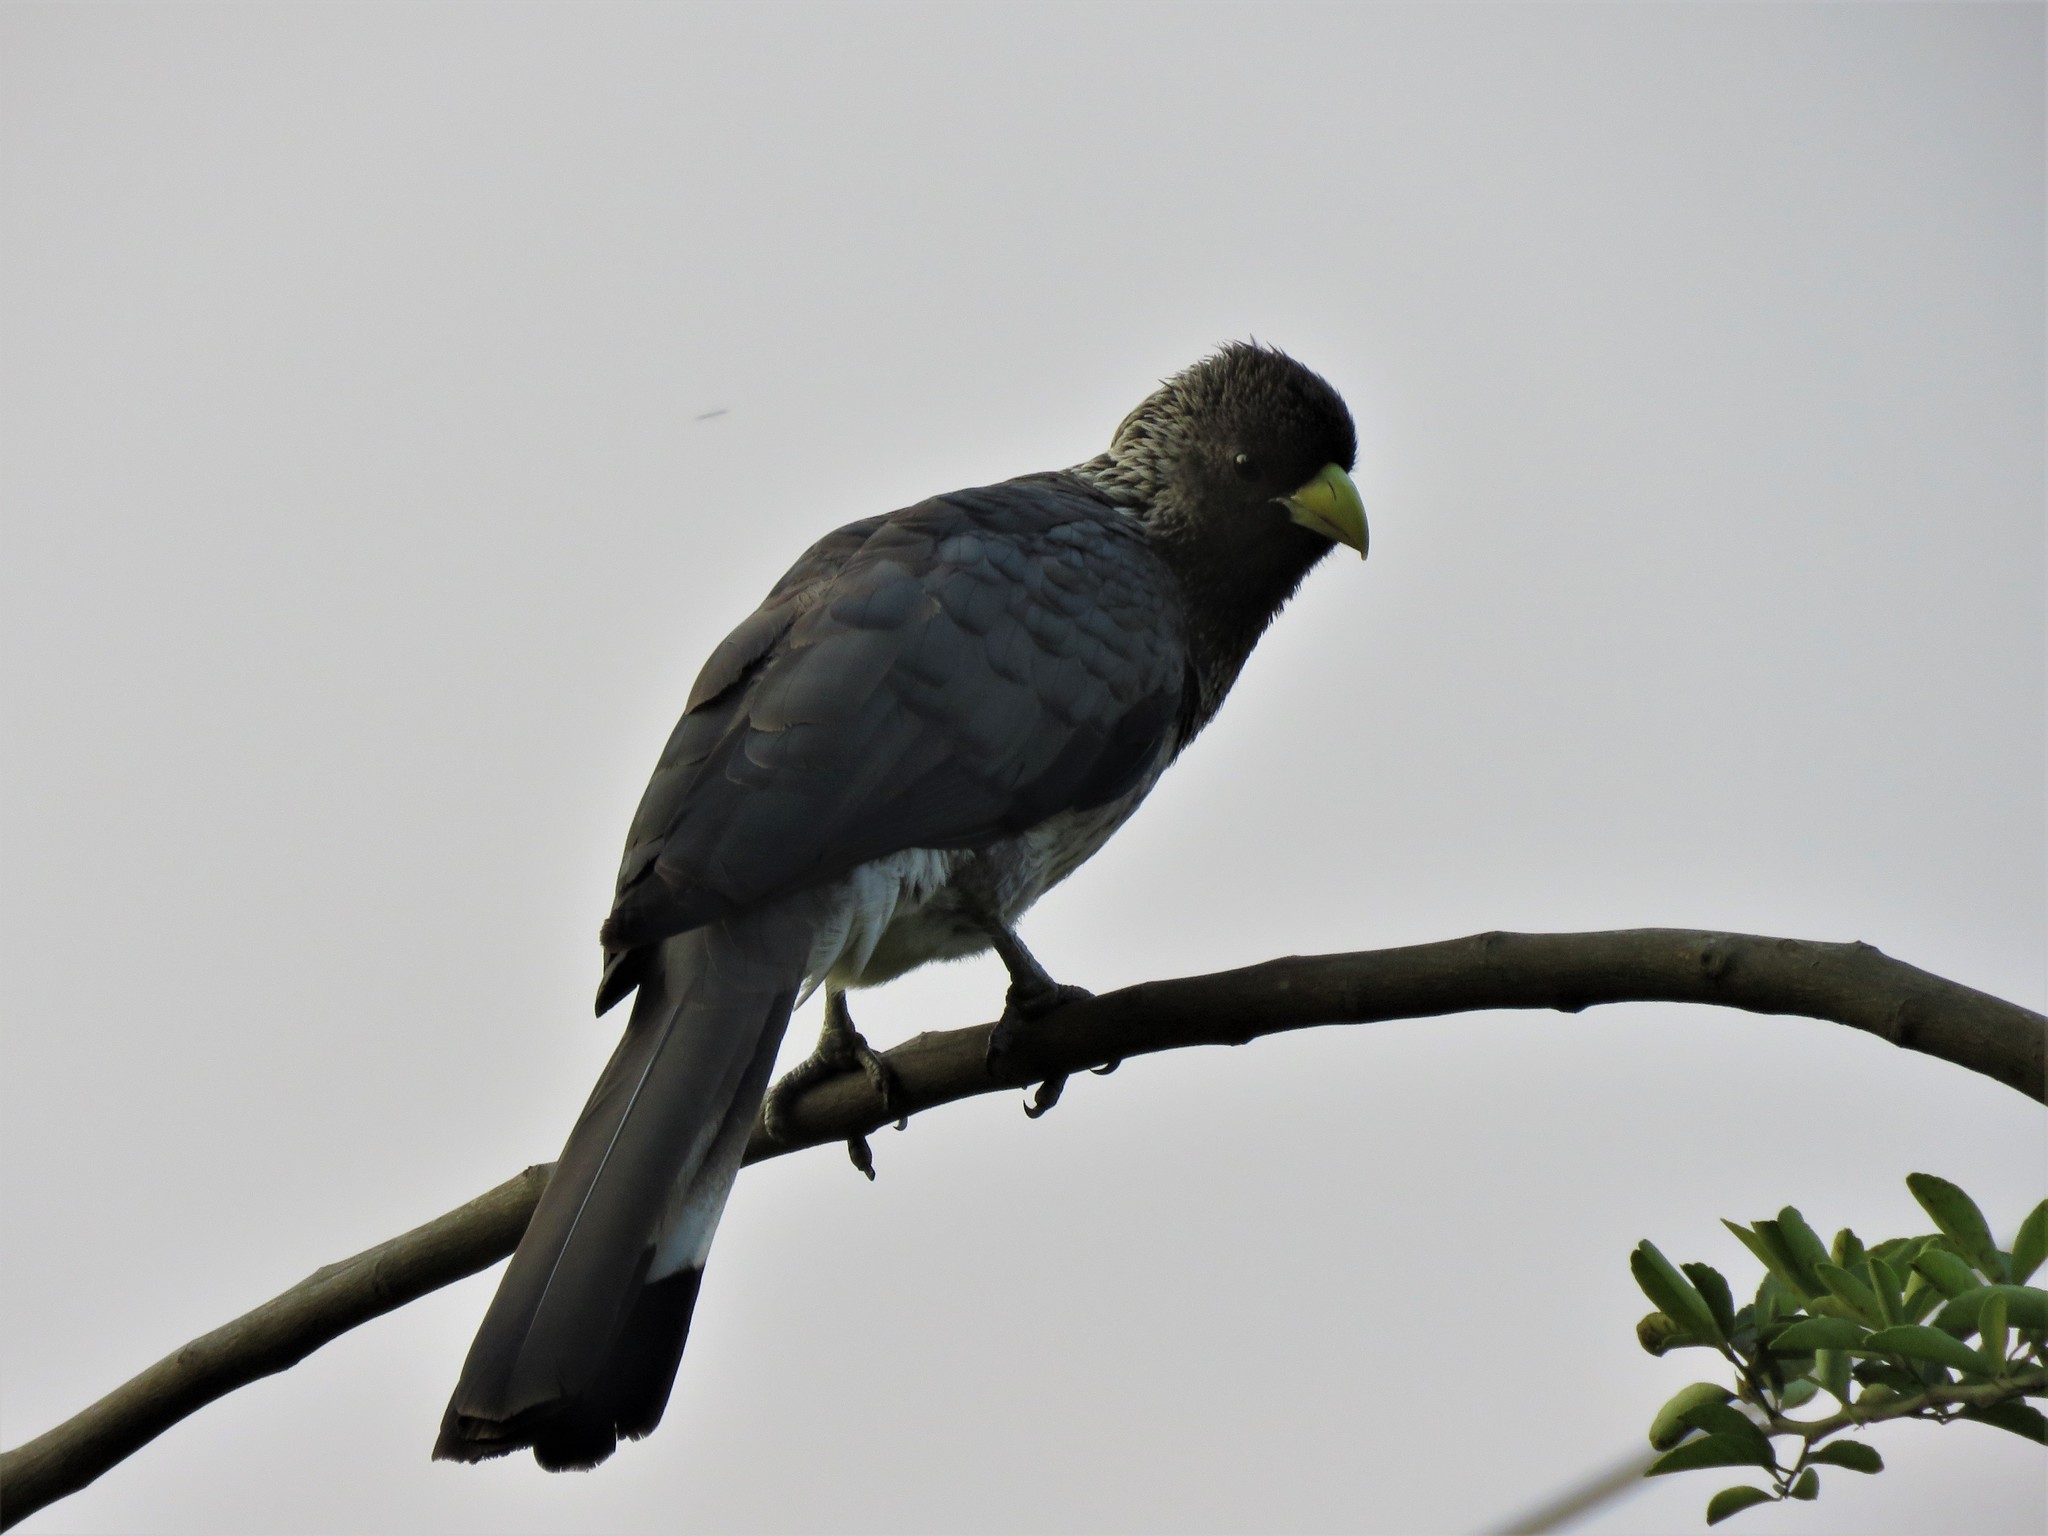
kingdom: Animalia
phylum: Chordata
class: Aves
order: Musophagiformes
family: Musophagidae
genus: Crinifer
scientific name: Crinifer zonurus
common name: Eastern plantain-eater
